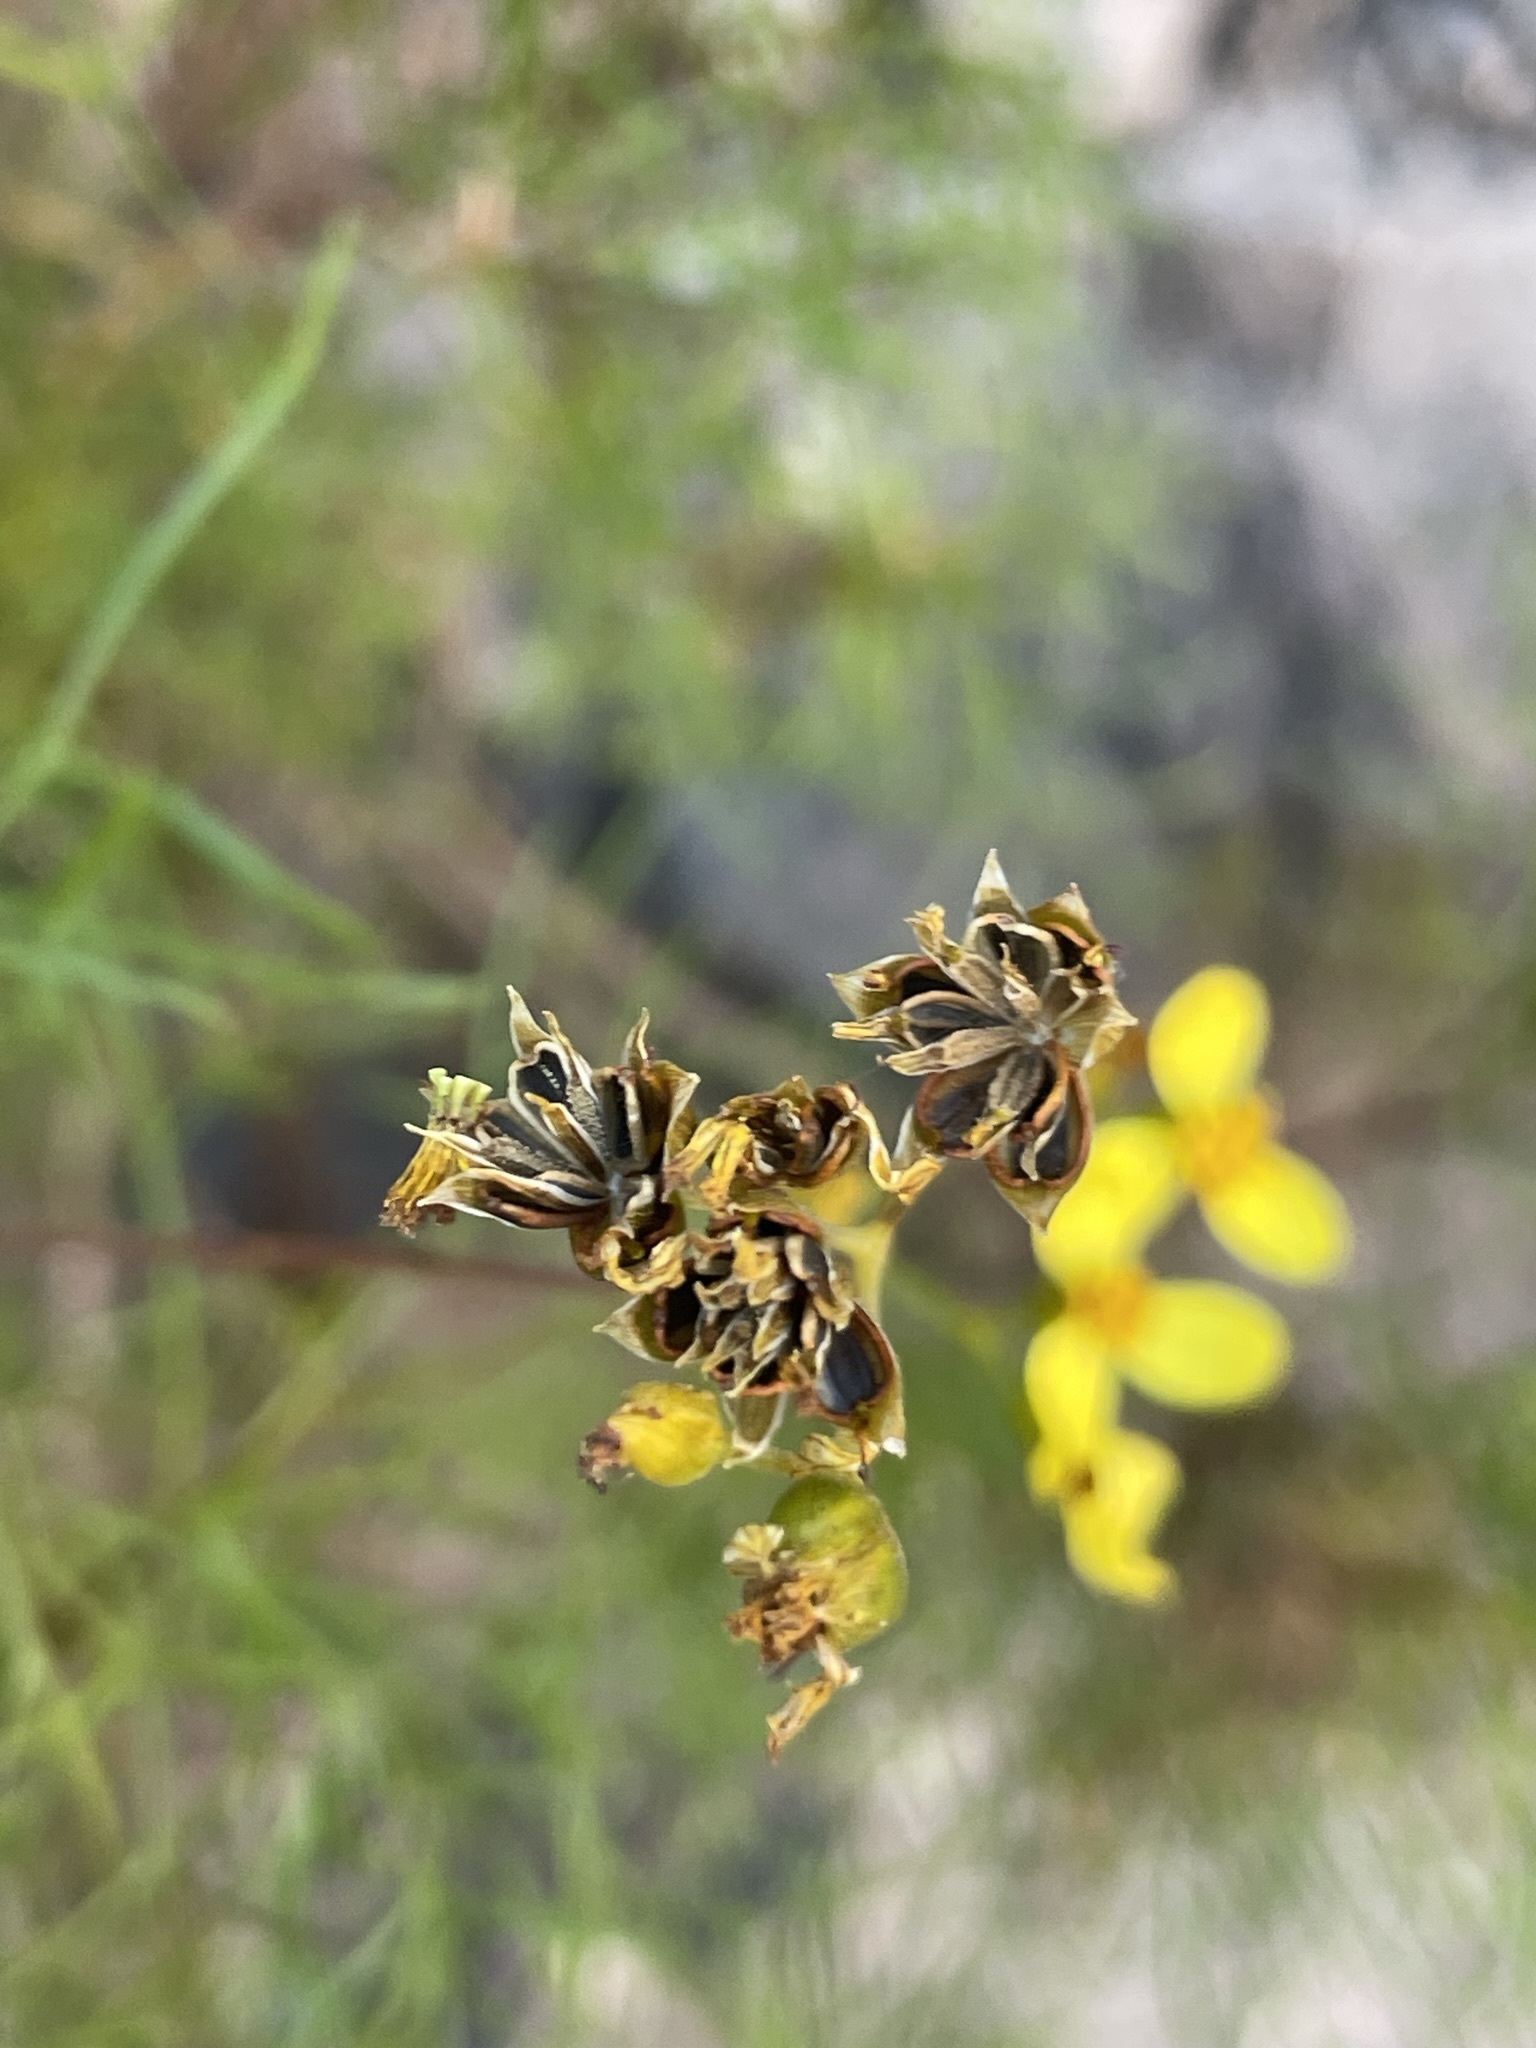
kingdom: Plantae
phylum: Tracheophyta
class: Magnoliopsida
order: Asterales
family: Asteraceae
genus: Coreocarpus
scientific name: Coreocarpus dissectus
